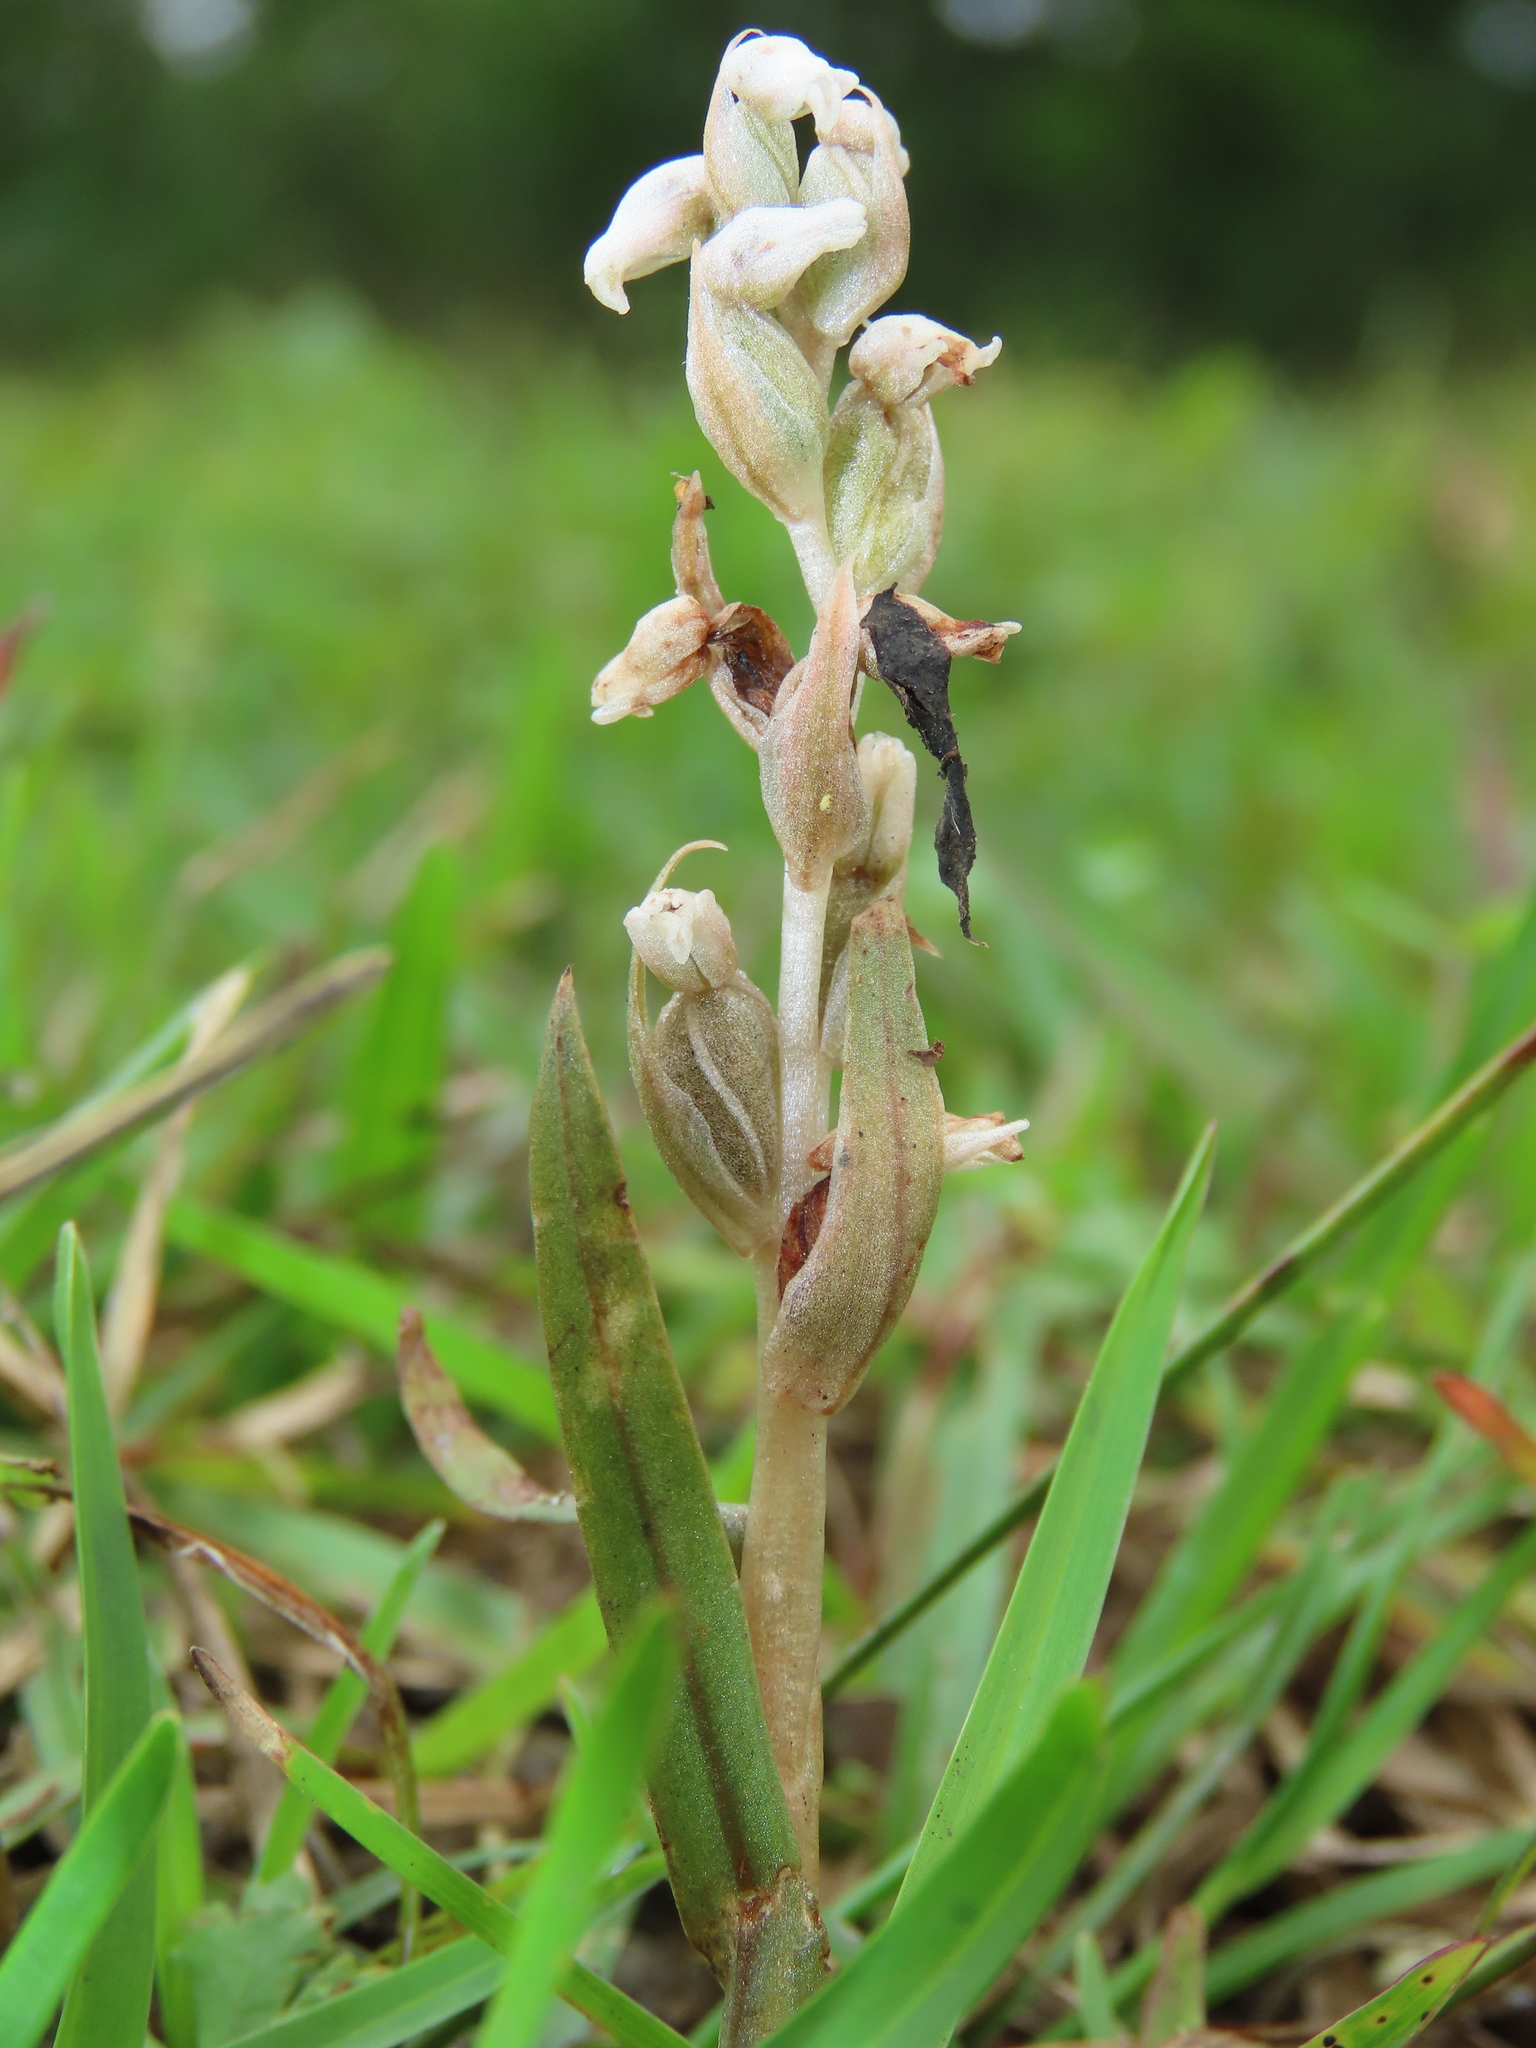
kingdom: Plantae
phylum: Tracheophyta
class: Liliopsida
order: Asparagales
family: Orchidaceae
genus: Zeuxine
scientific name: Zeuxine strateumatica
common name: Soldier's orchid
